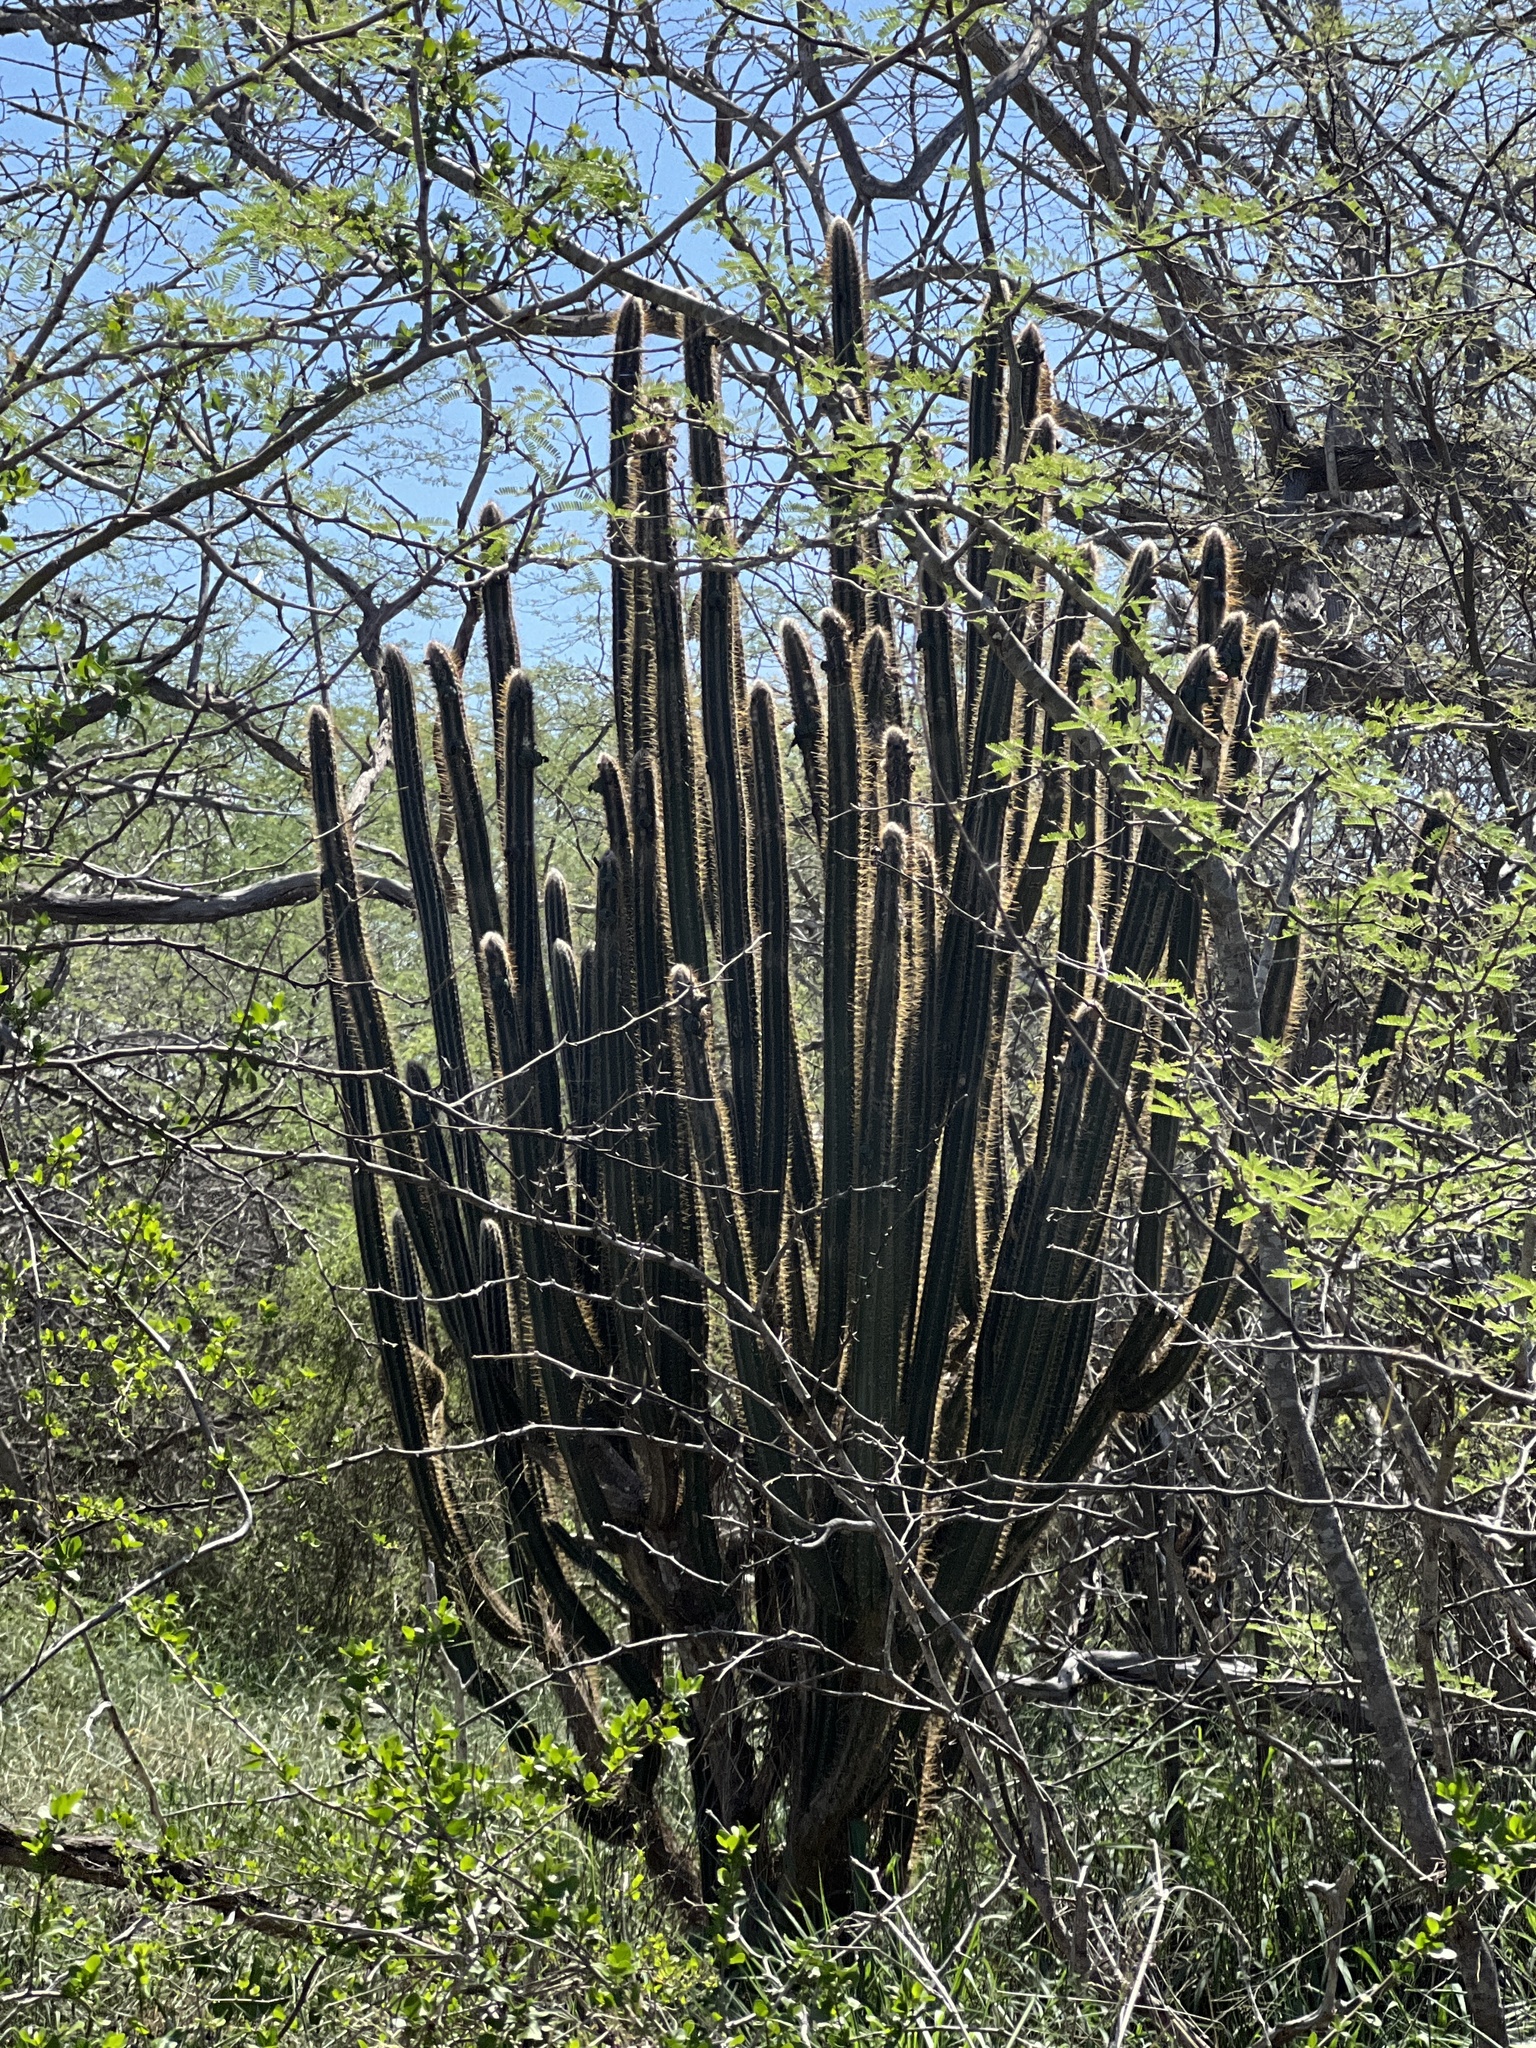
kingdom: Plantae
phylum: Tracheophyta
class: Magnoliopsida
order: Caryophyllales
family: Cactaceae
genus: Pilosocereus
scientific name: Pilosocereus armatus
